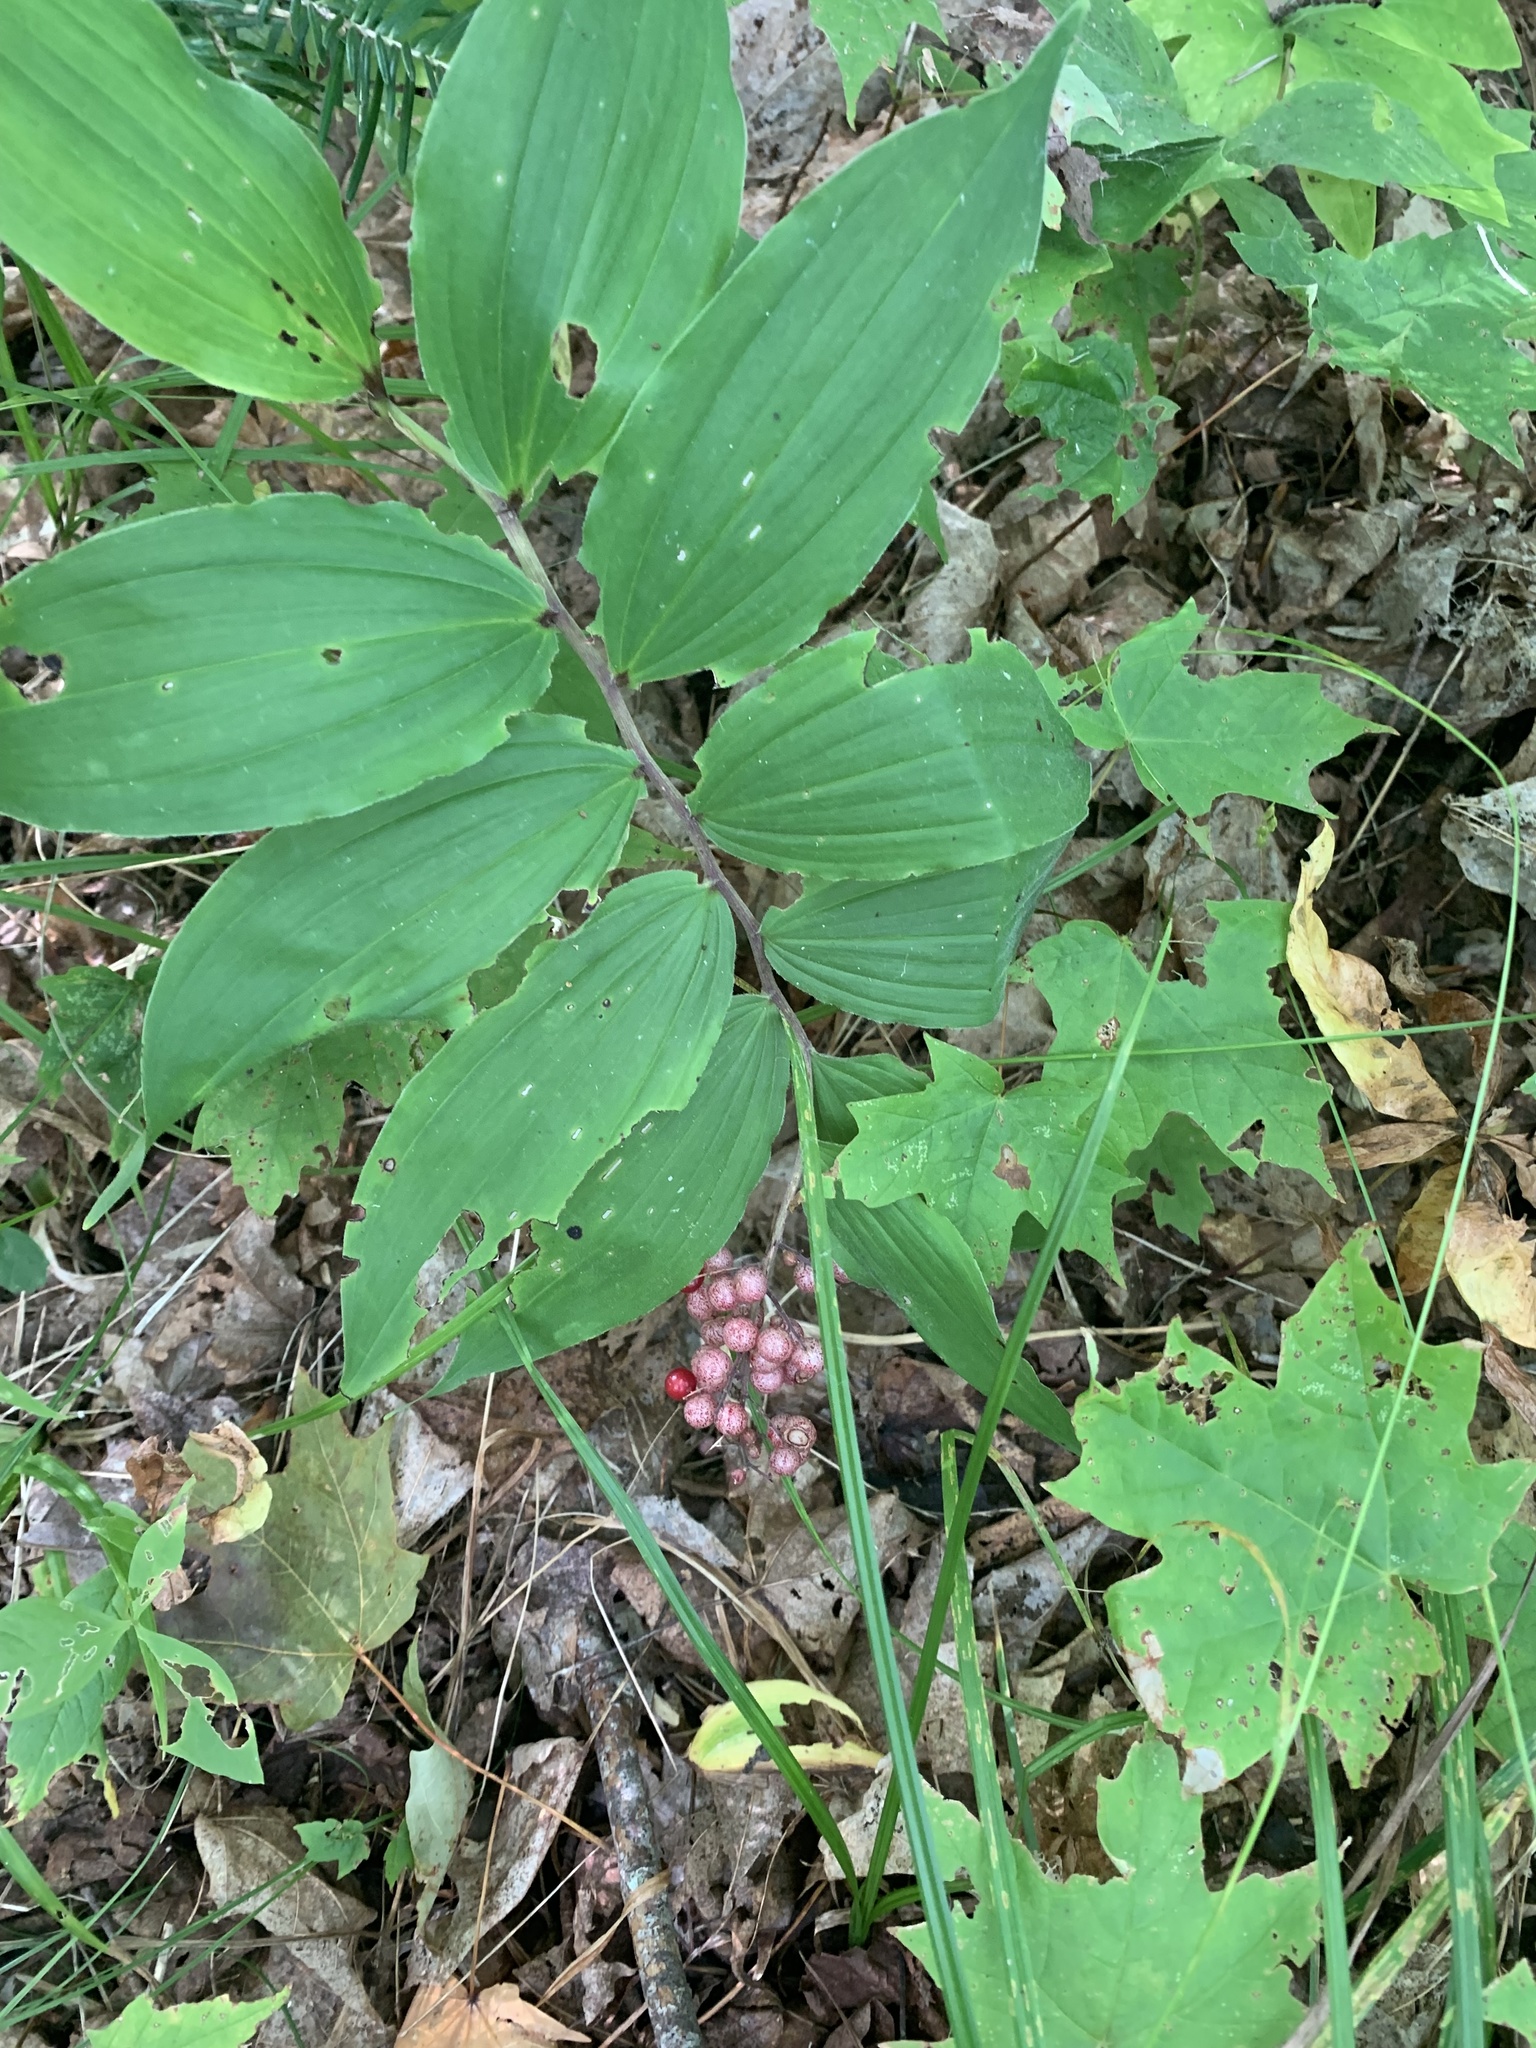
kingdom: Plantae
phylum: Tracheophyta
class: Liliopsida
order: Asparagales
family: Asparagaceae
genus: Maianthemum
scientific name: Maianthemum racemosum
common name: False spikenard
